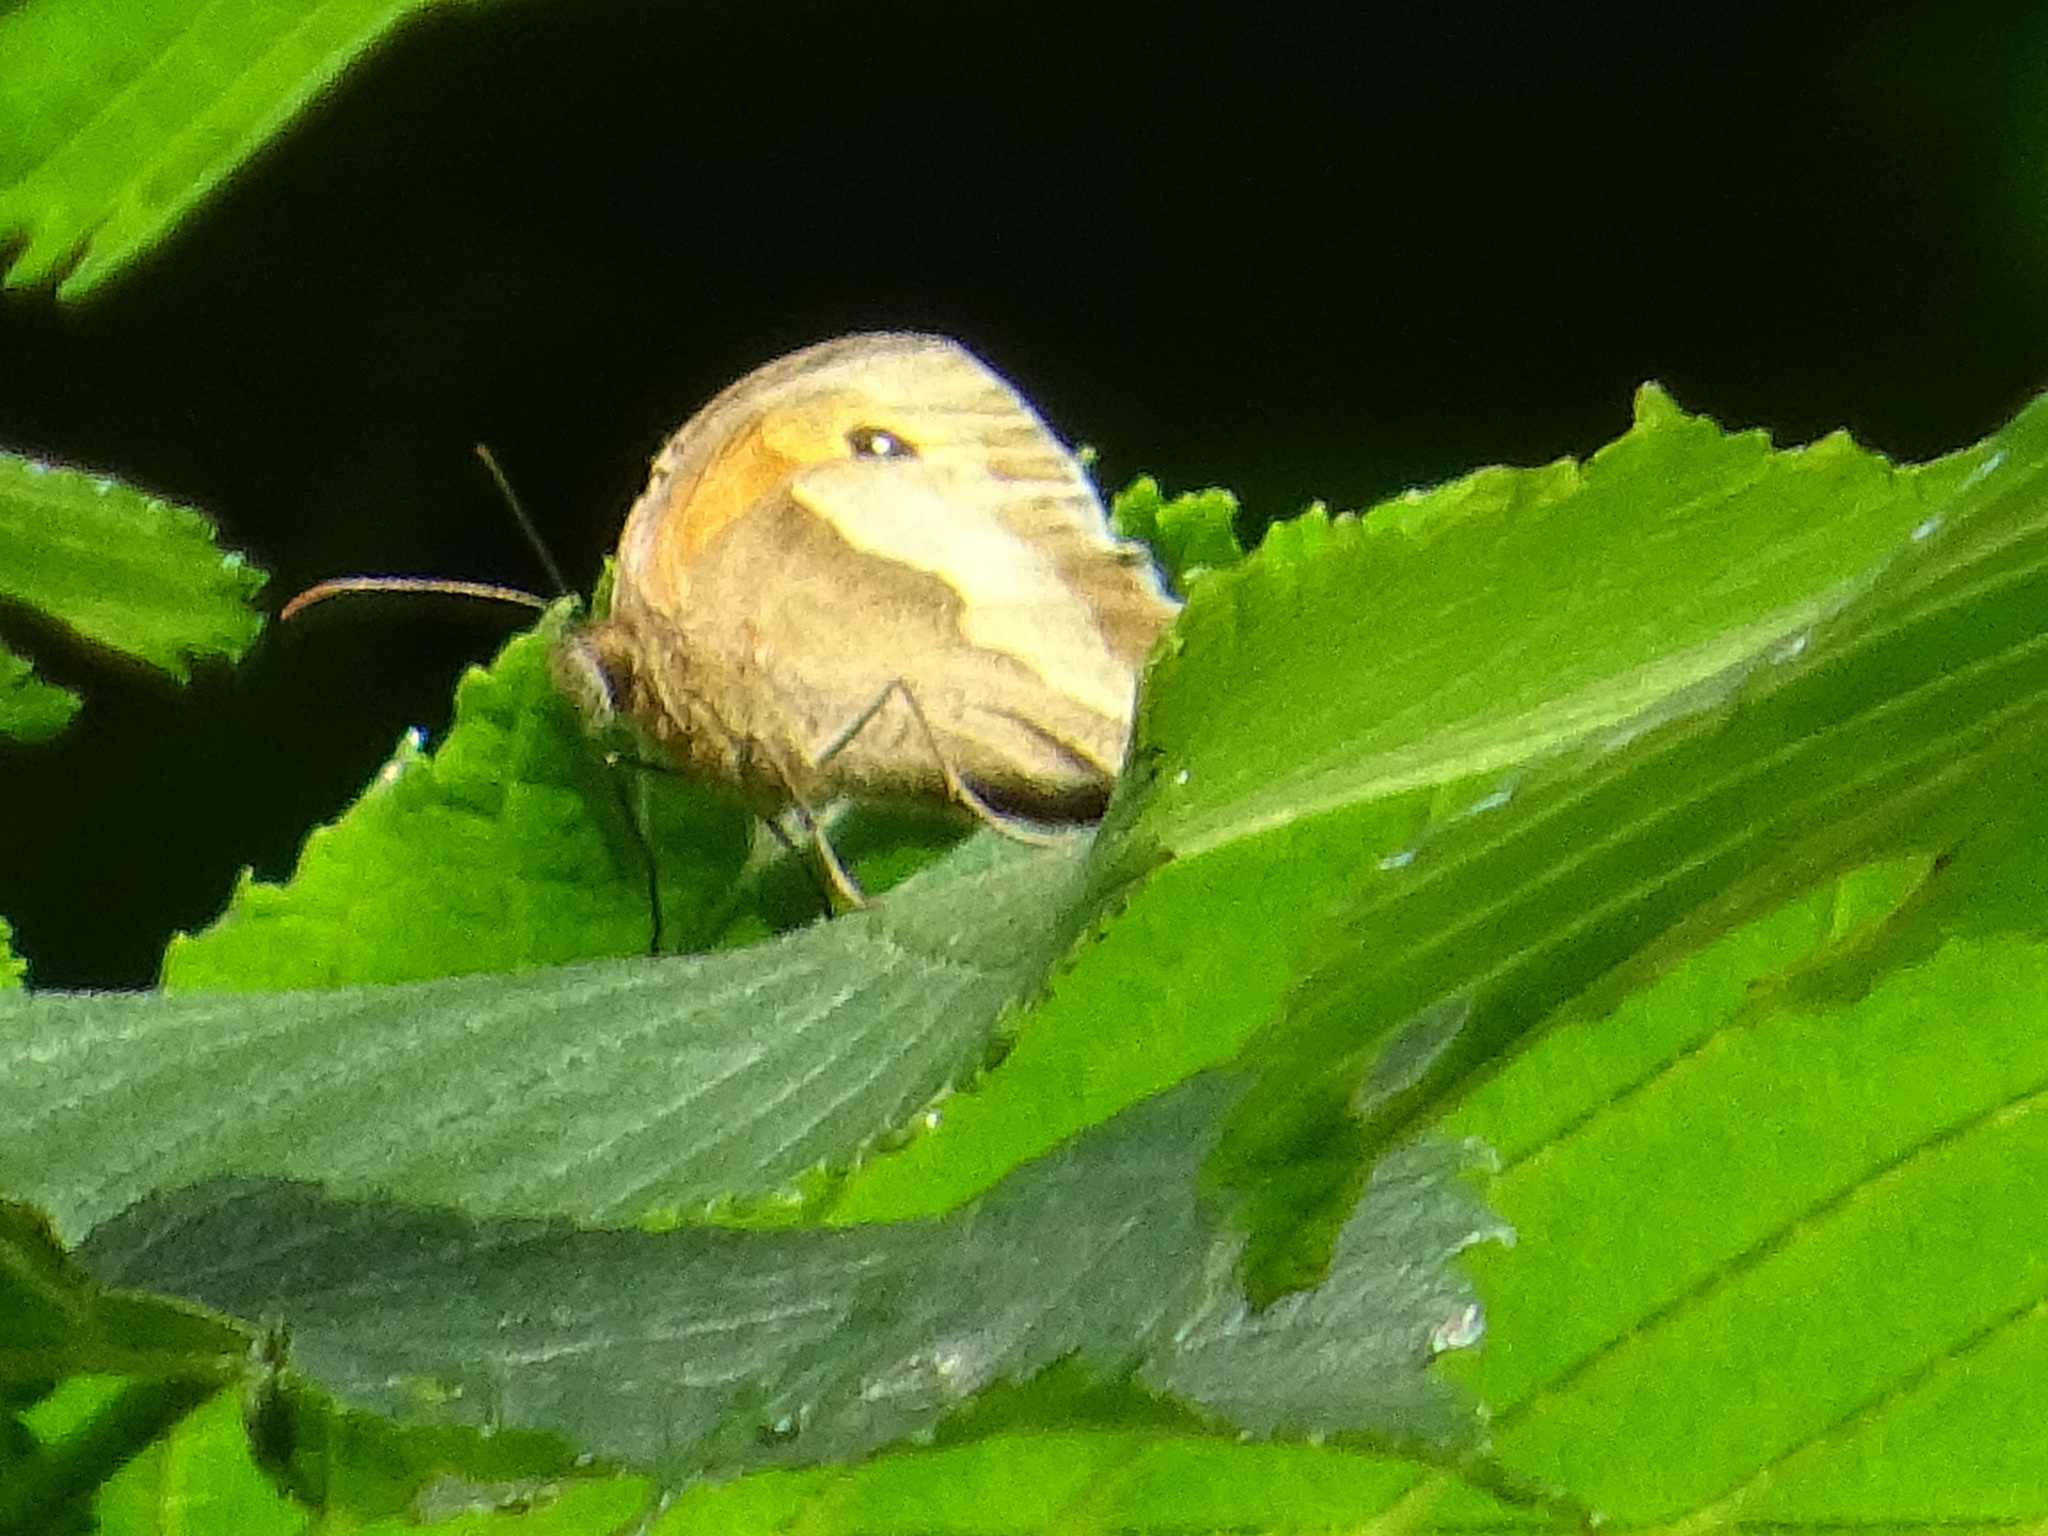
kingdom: Animalia
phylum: Arthropoda
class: Insecta
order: Lepidoptera
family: Nymphalidae
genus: Maniola
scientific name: Maniola jurtina
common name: Meadow brown
